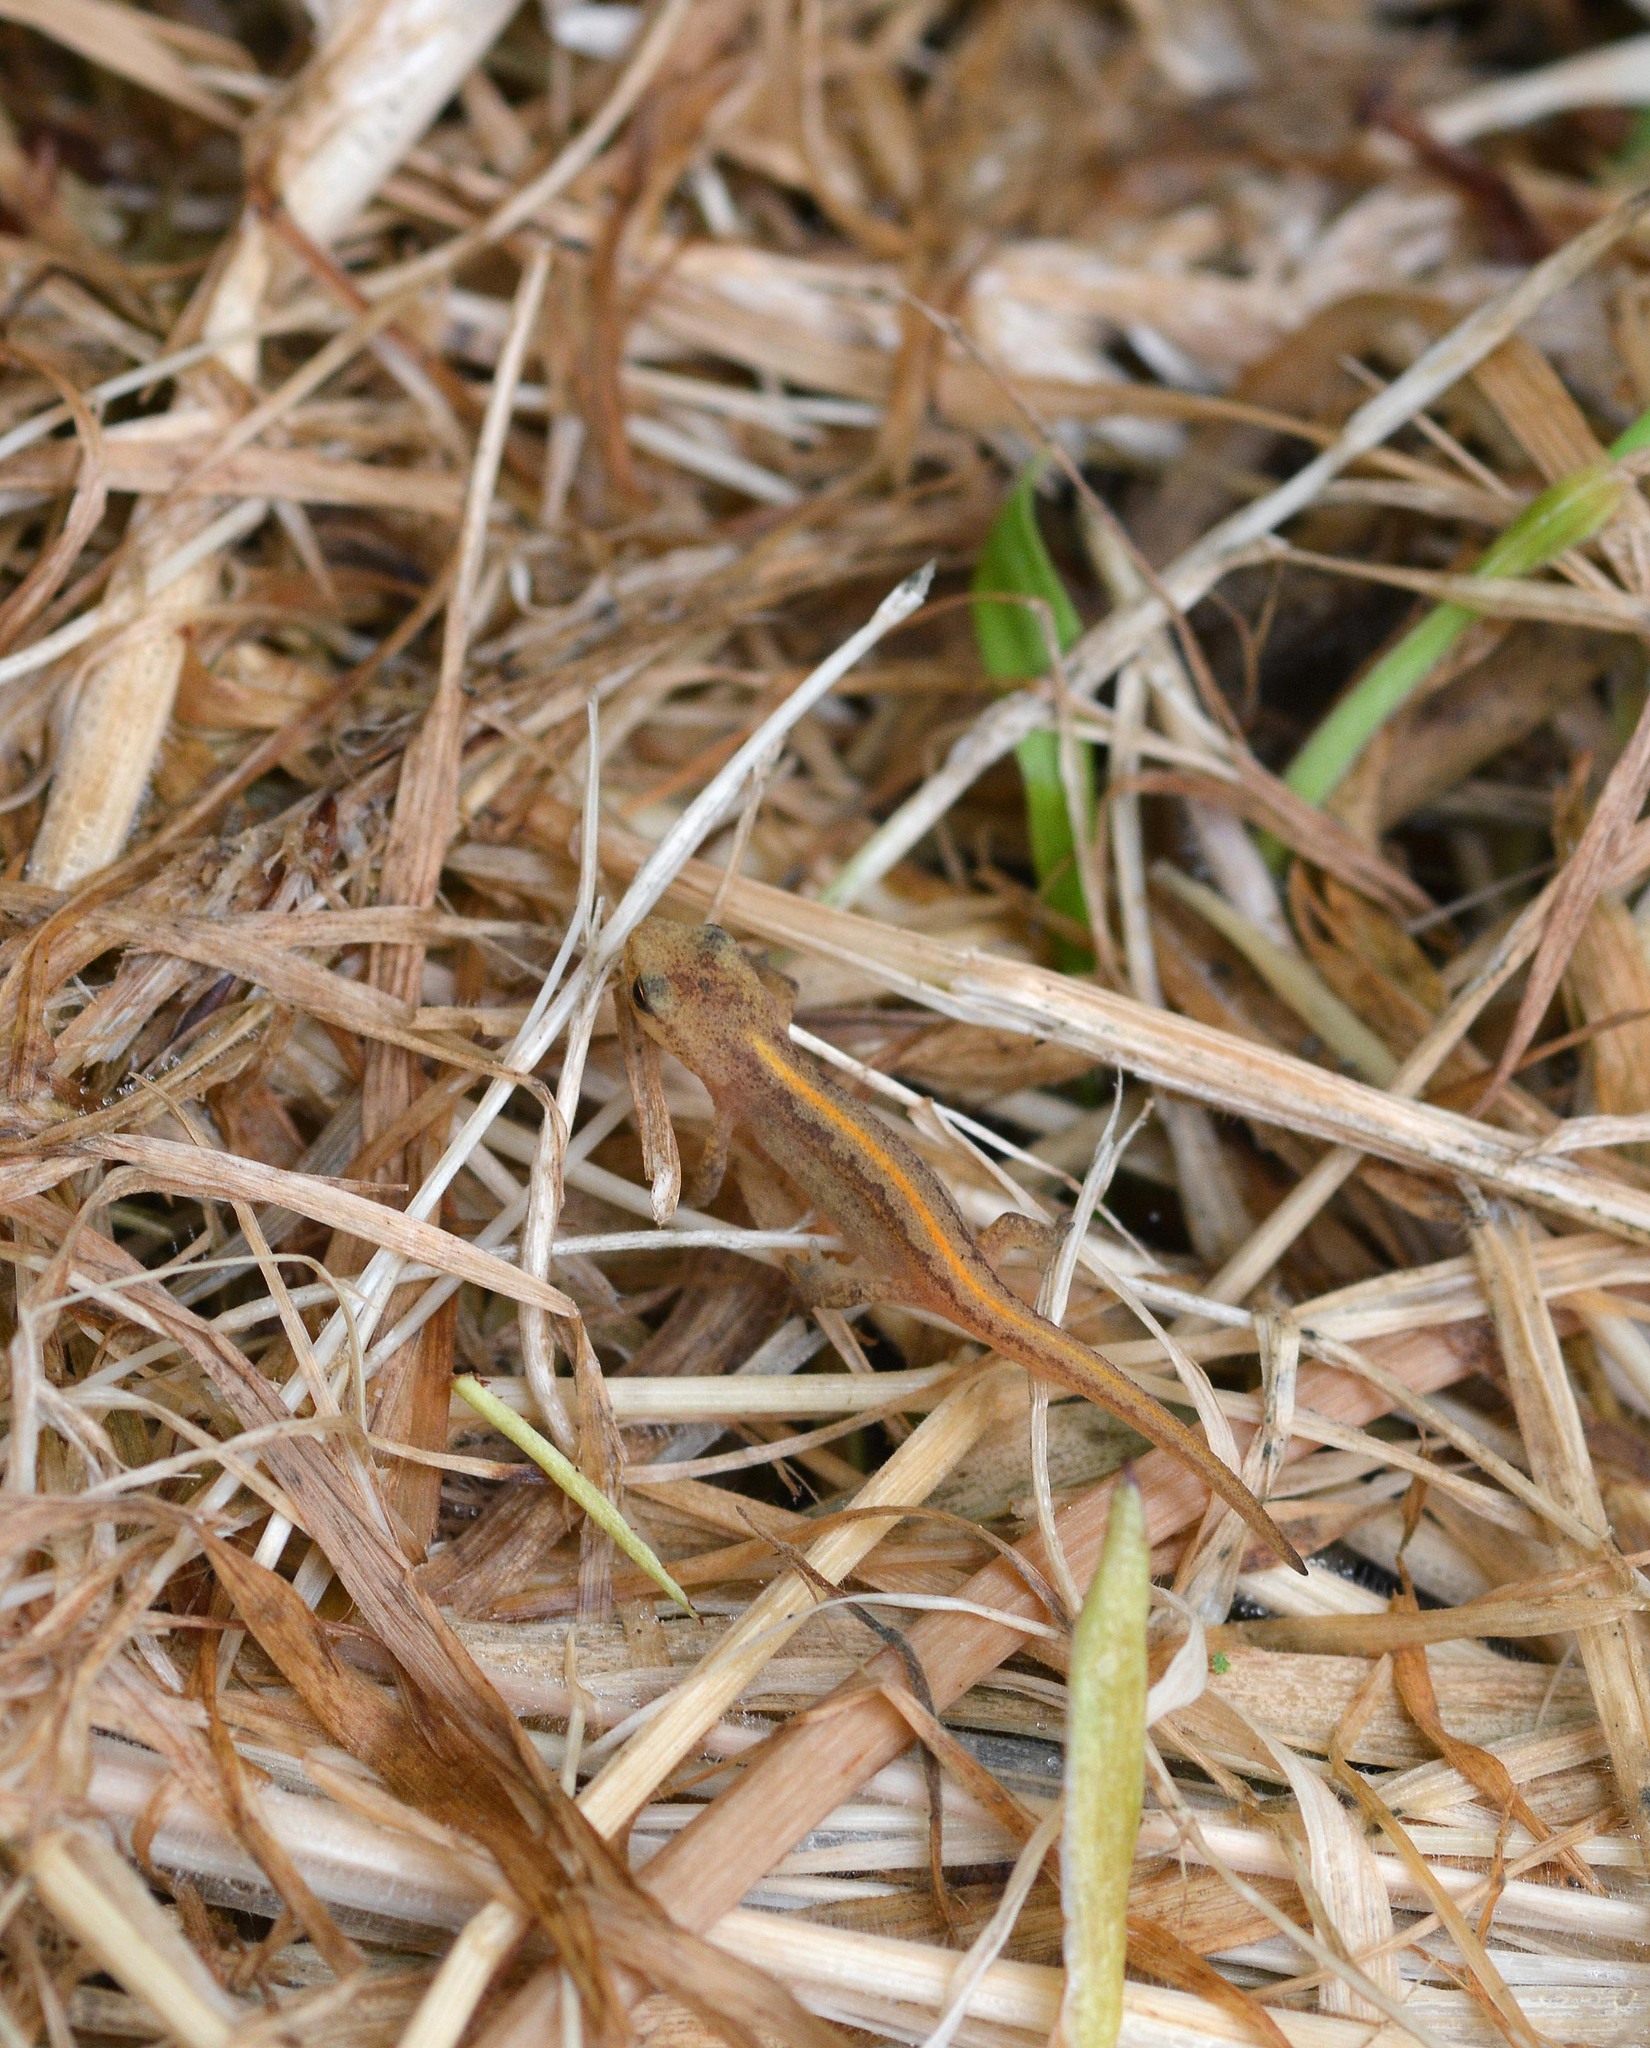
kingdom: Animalia
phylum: Chordata
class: Amphibia
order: Caudata
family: Salamandridae
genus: Lissotriton
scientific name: Lissotriton helveticus
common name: Palmate newt
